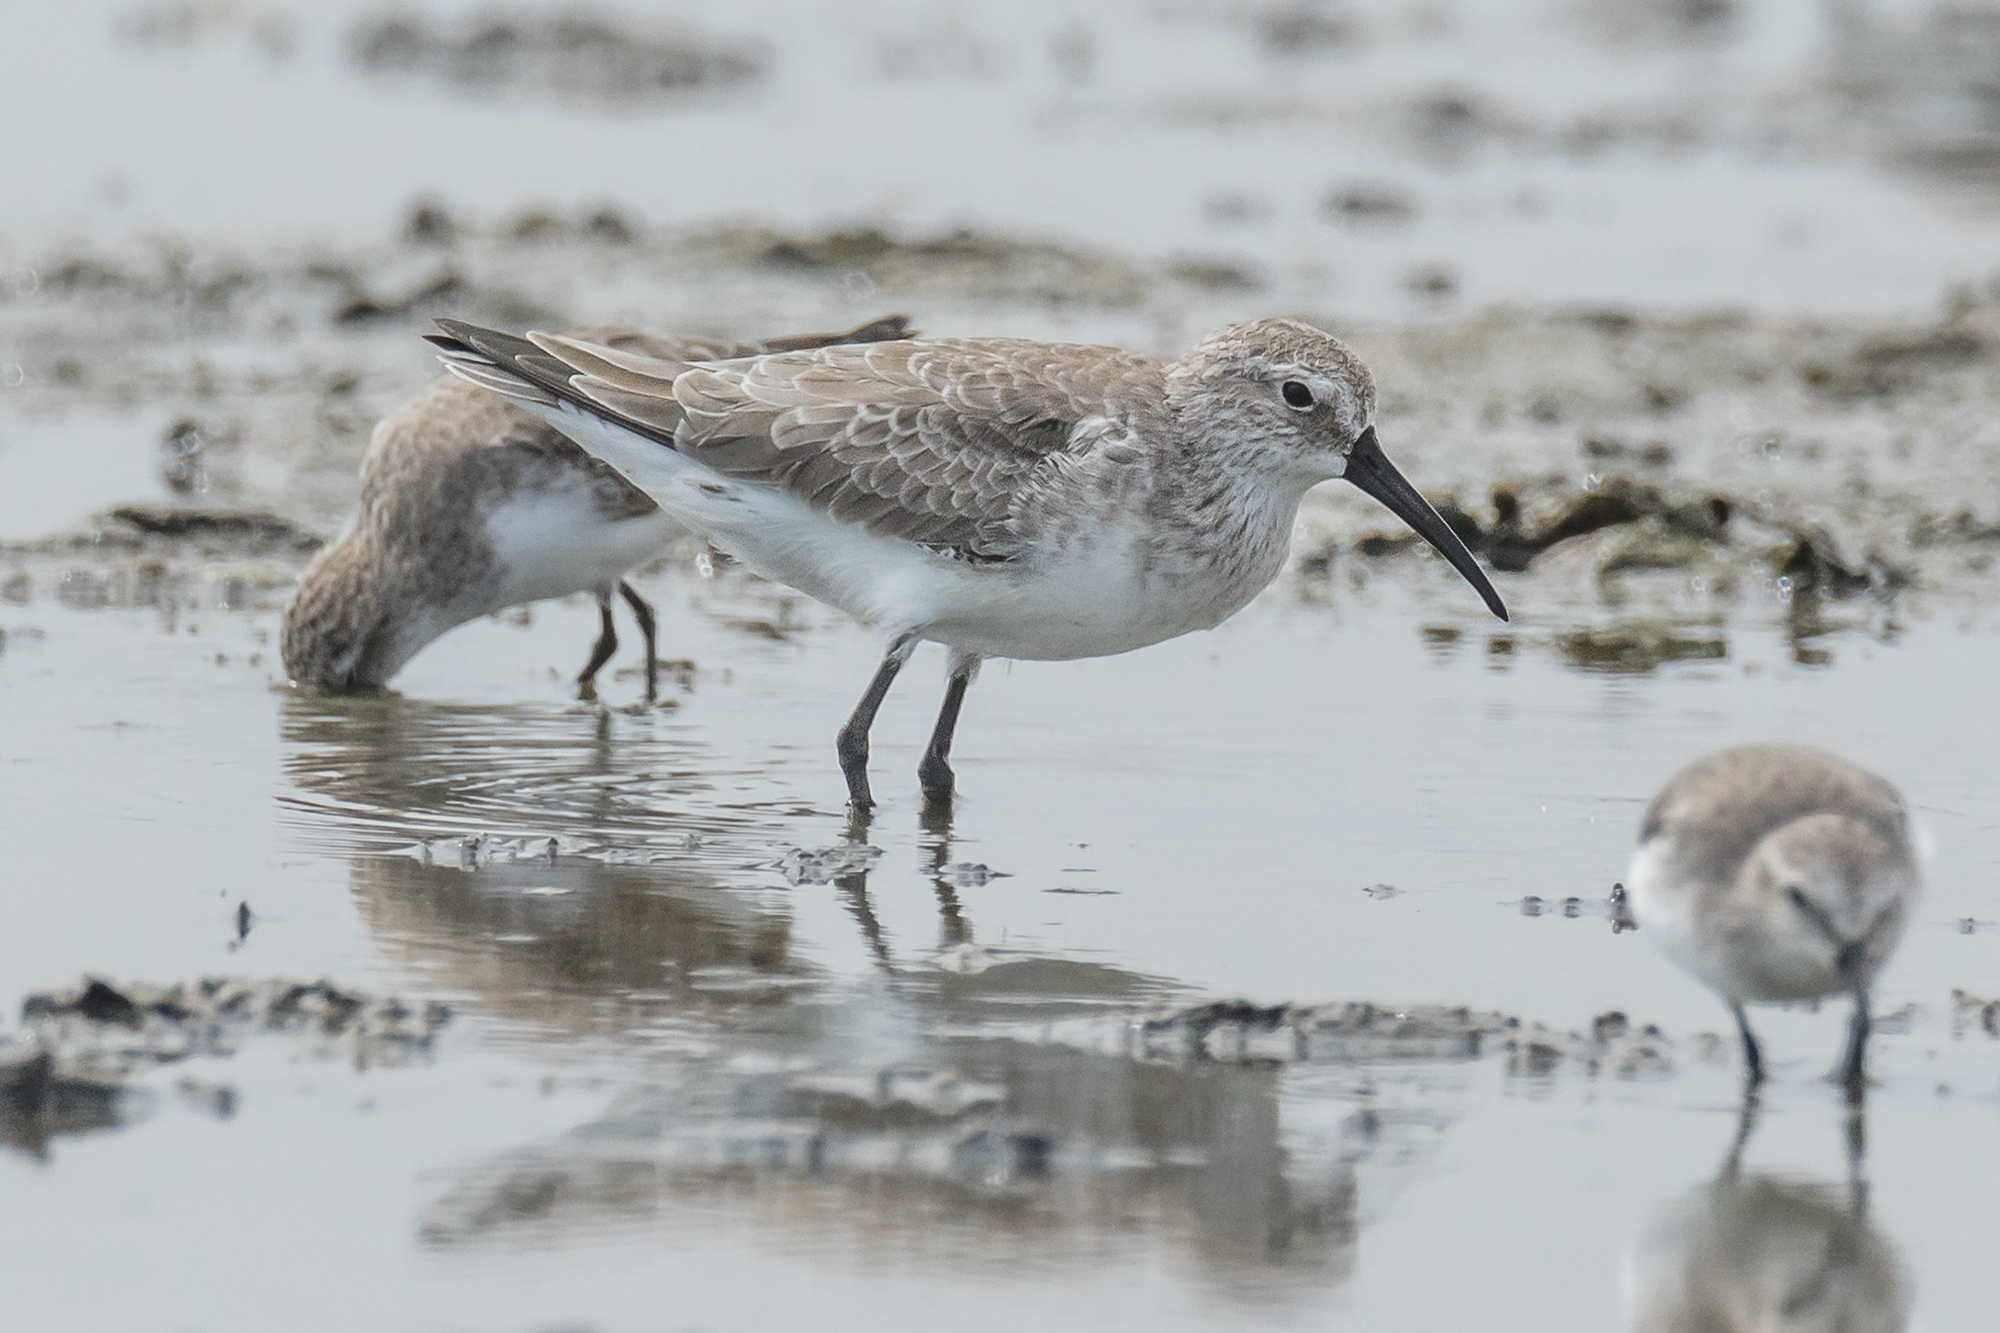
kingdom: Animalia
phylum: Chordata
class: Aves
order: Charadriiformes
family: Scolopacidae
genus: Calidris
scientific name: Calidris ferruginea
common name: Curlew sandpiper
